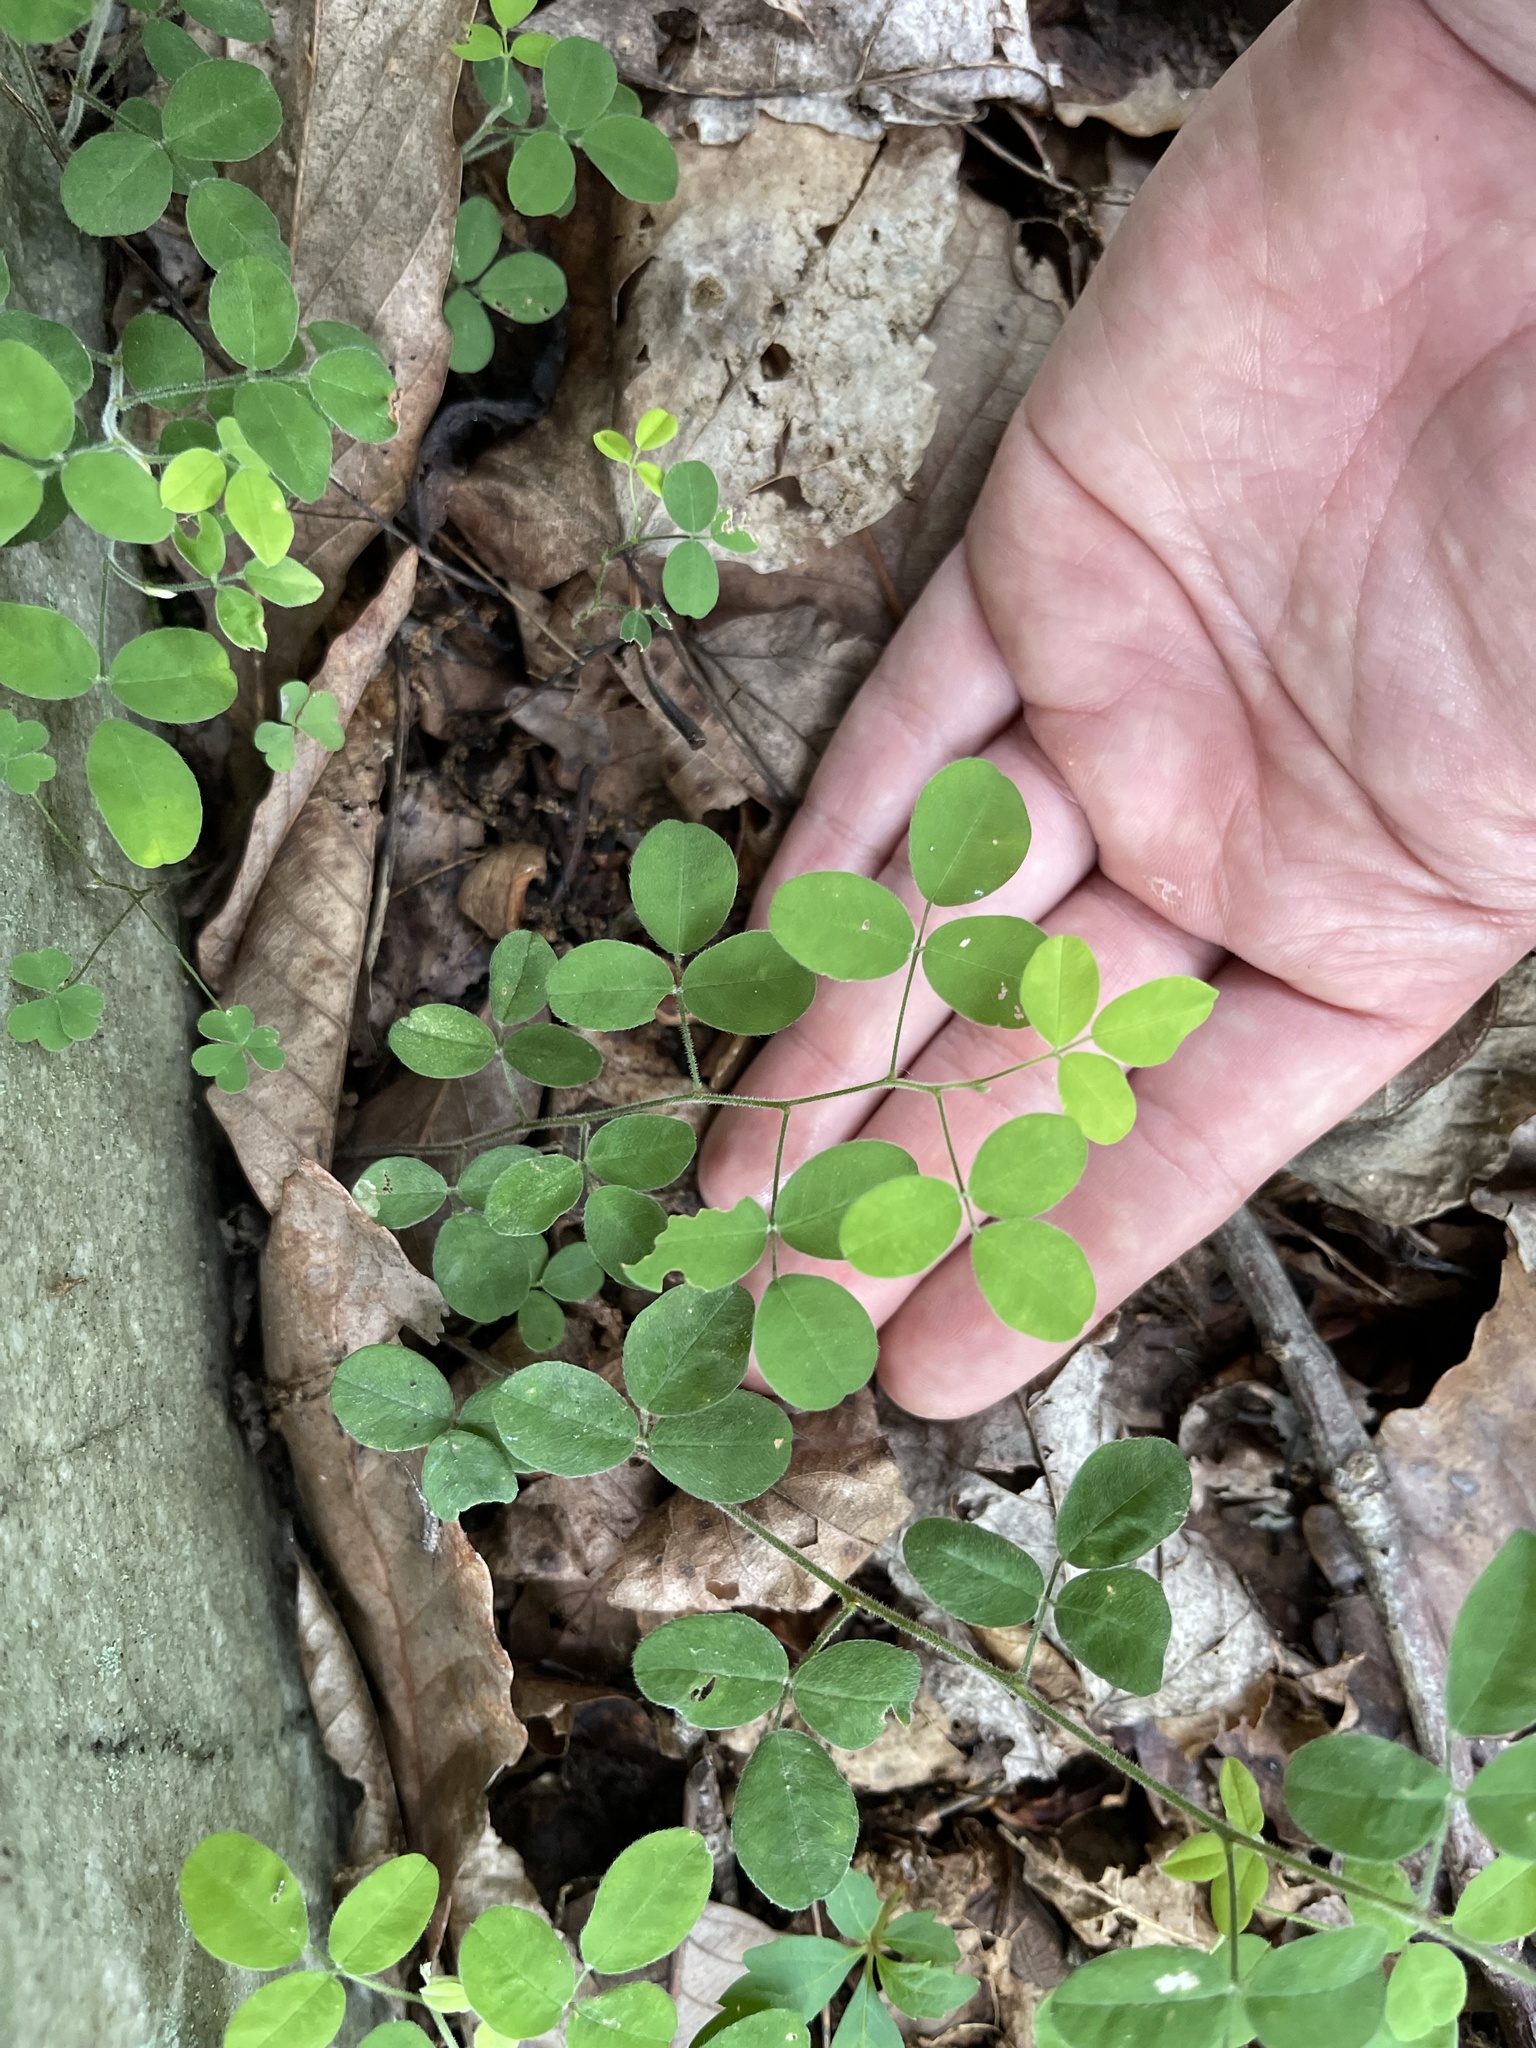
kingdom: Plantae
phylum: Tracheophyta
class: Magnoliopsida
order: Fabales
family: Fabaceae
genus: Lespedeza
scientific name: Lespedeza procumbens
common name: Downy trailing bush-clover
